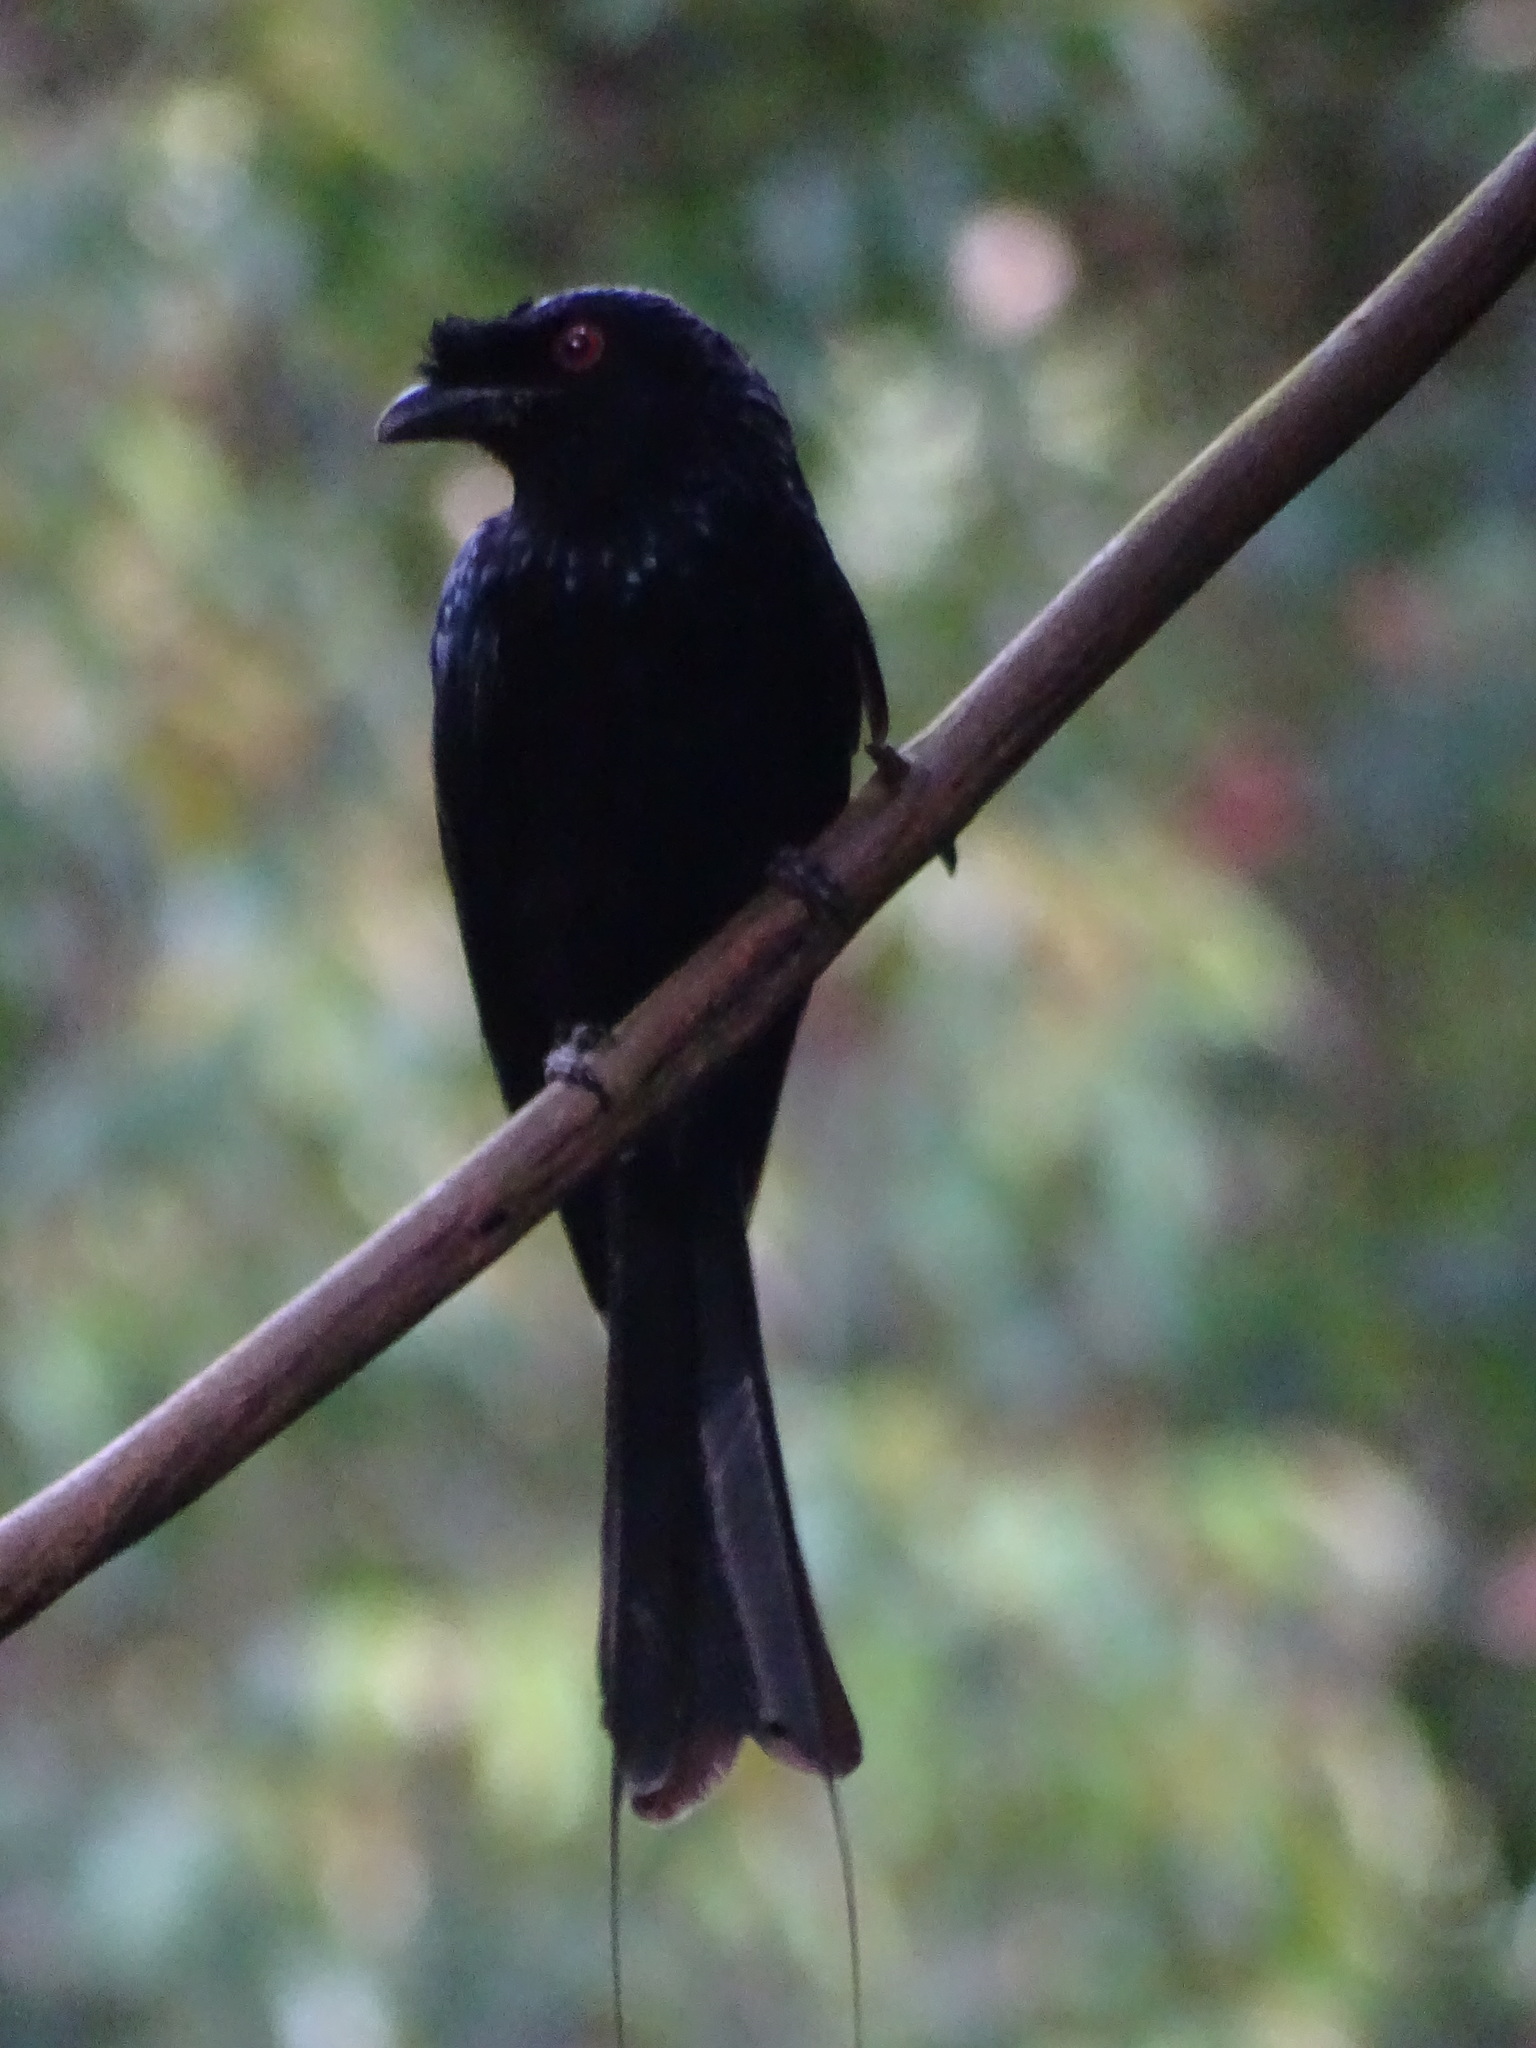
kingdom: Animalia
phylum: Chordata
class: Aves
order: Passeriformes
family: Dicruridae
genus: Dicrurus
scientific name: Dicrurus paradiseus
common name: Greater racket-tailed drongo
